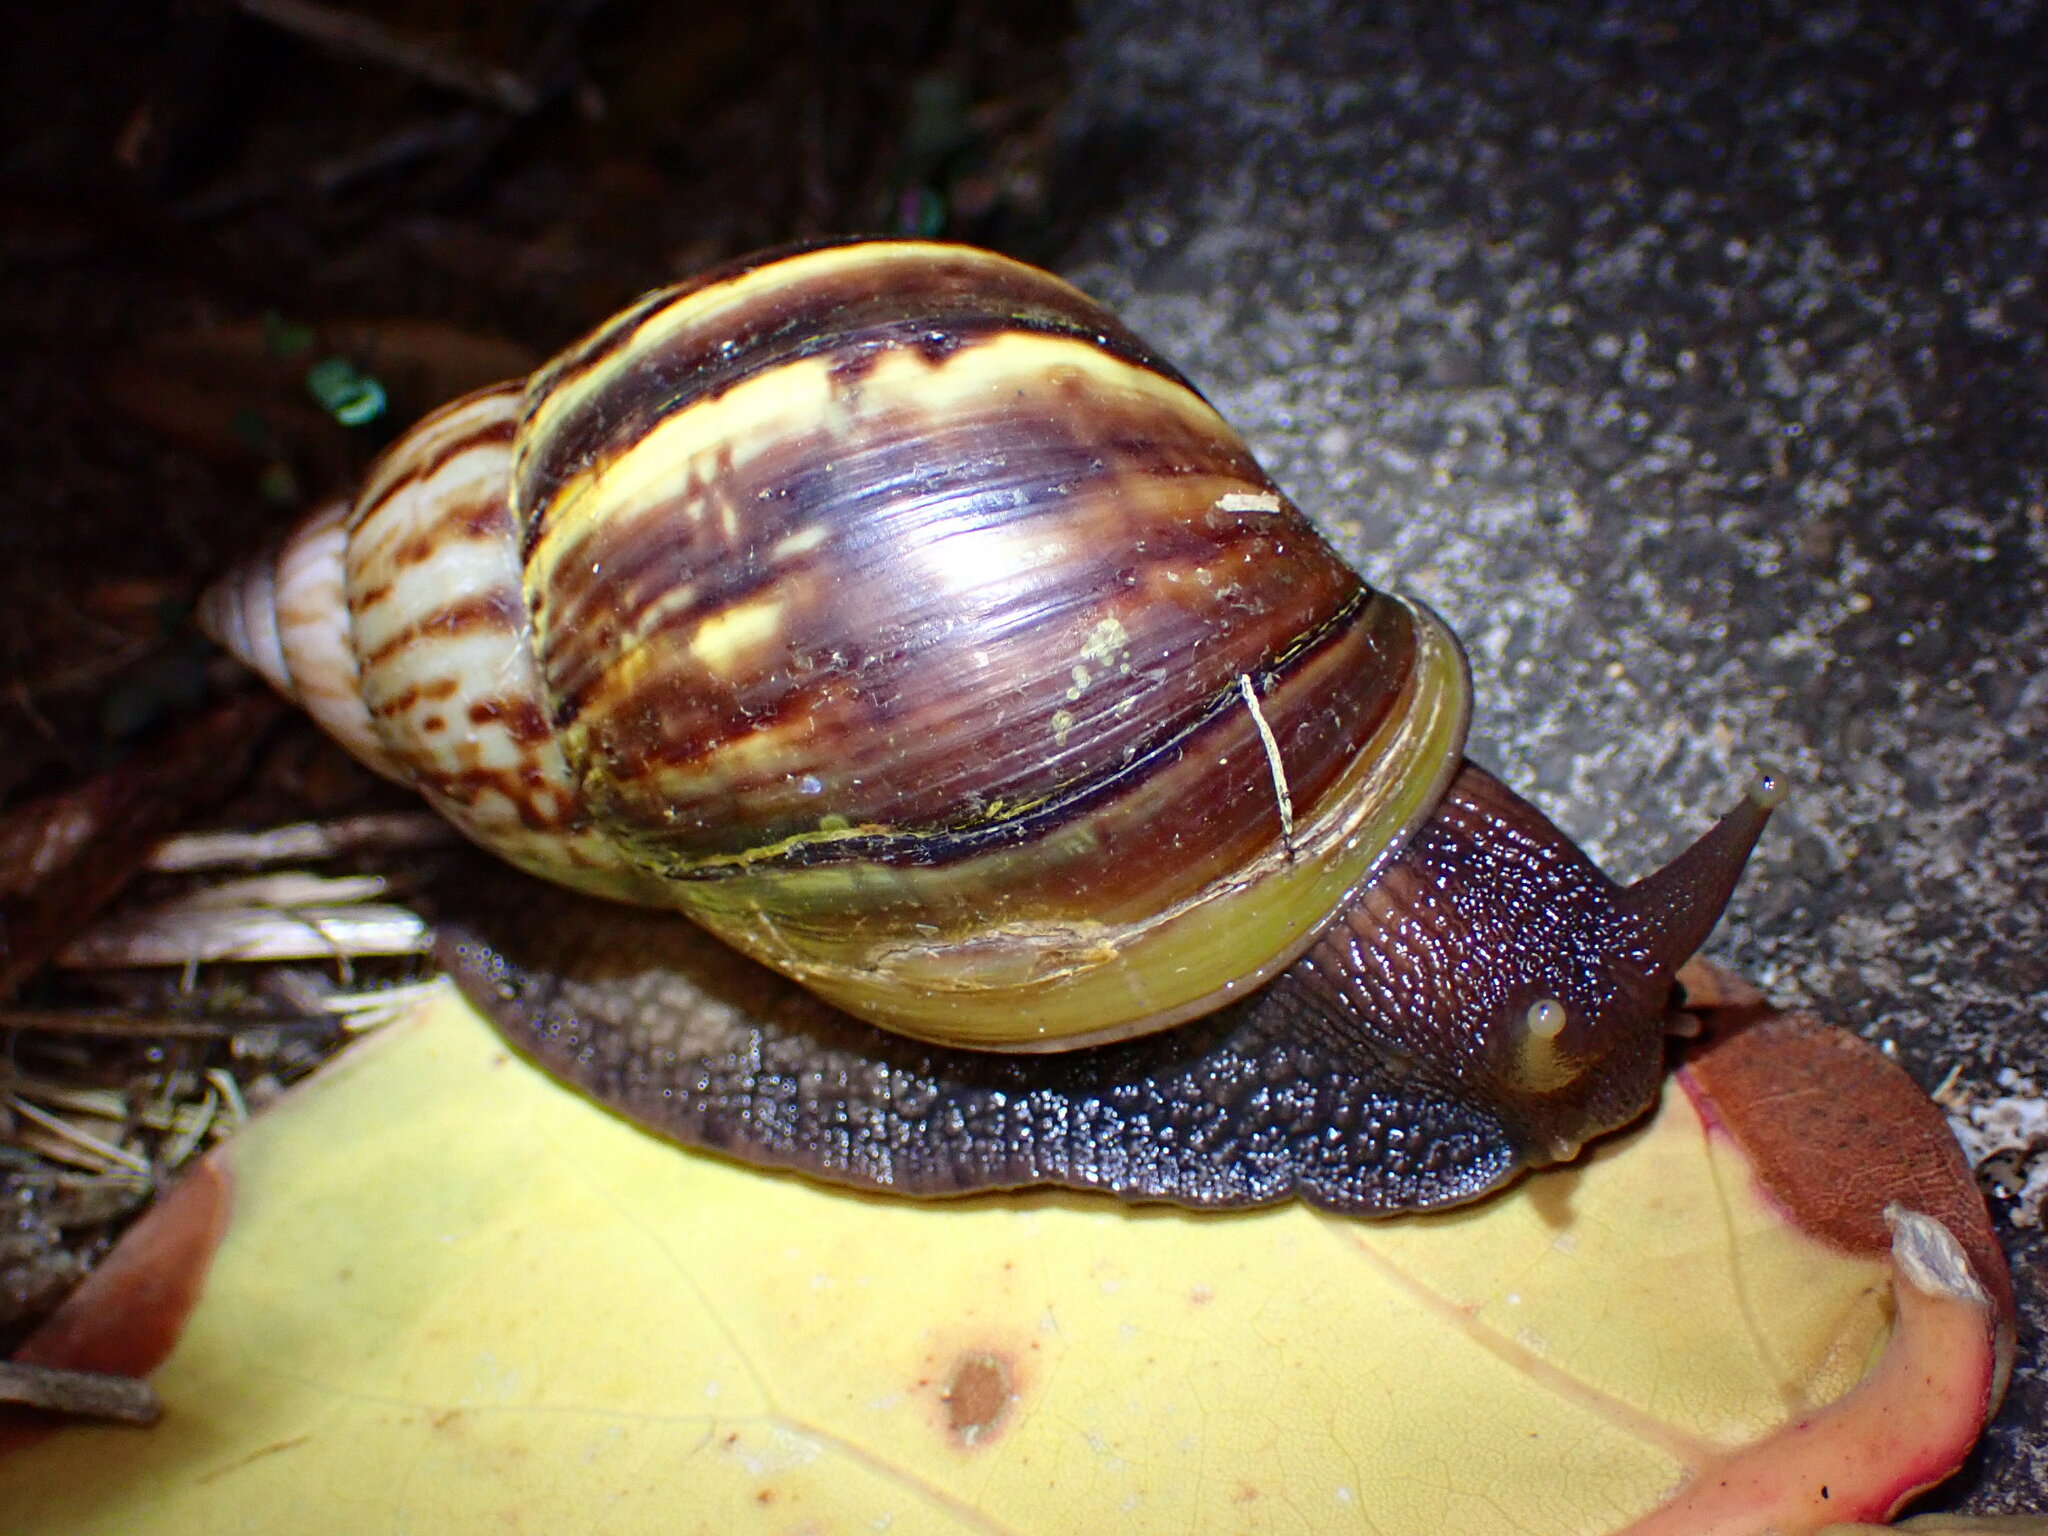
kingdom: Animalia
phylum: Mollusca
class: Gastropoda
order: Stylommatophora
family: Achatinidae
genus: Lissachatina
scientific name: Lissachatina fulica
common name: Giant african snail
